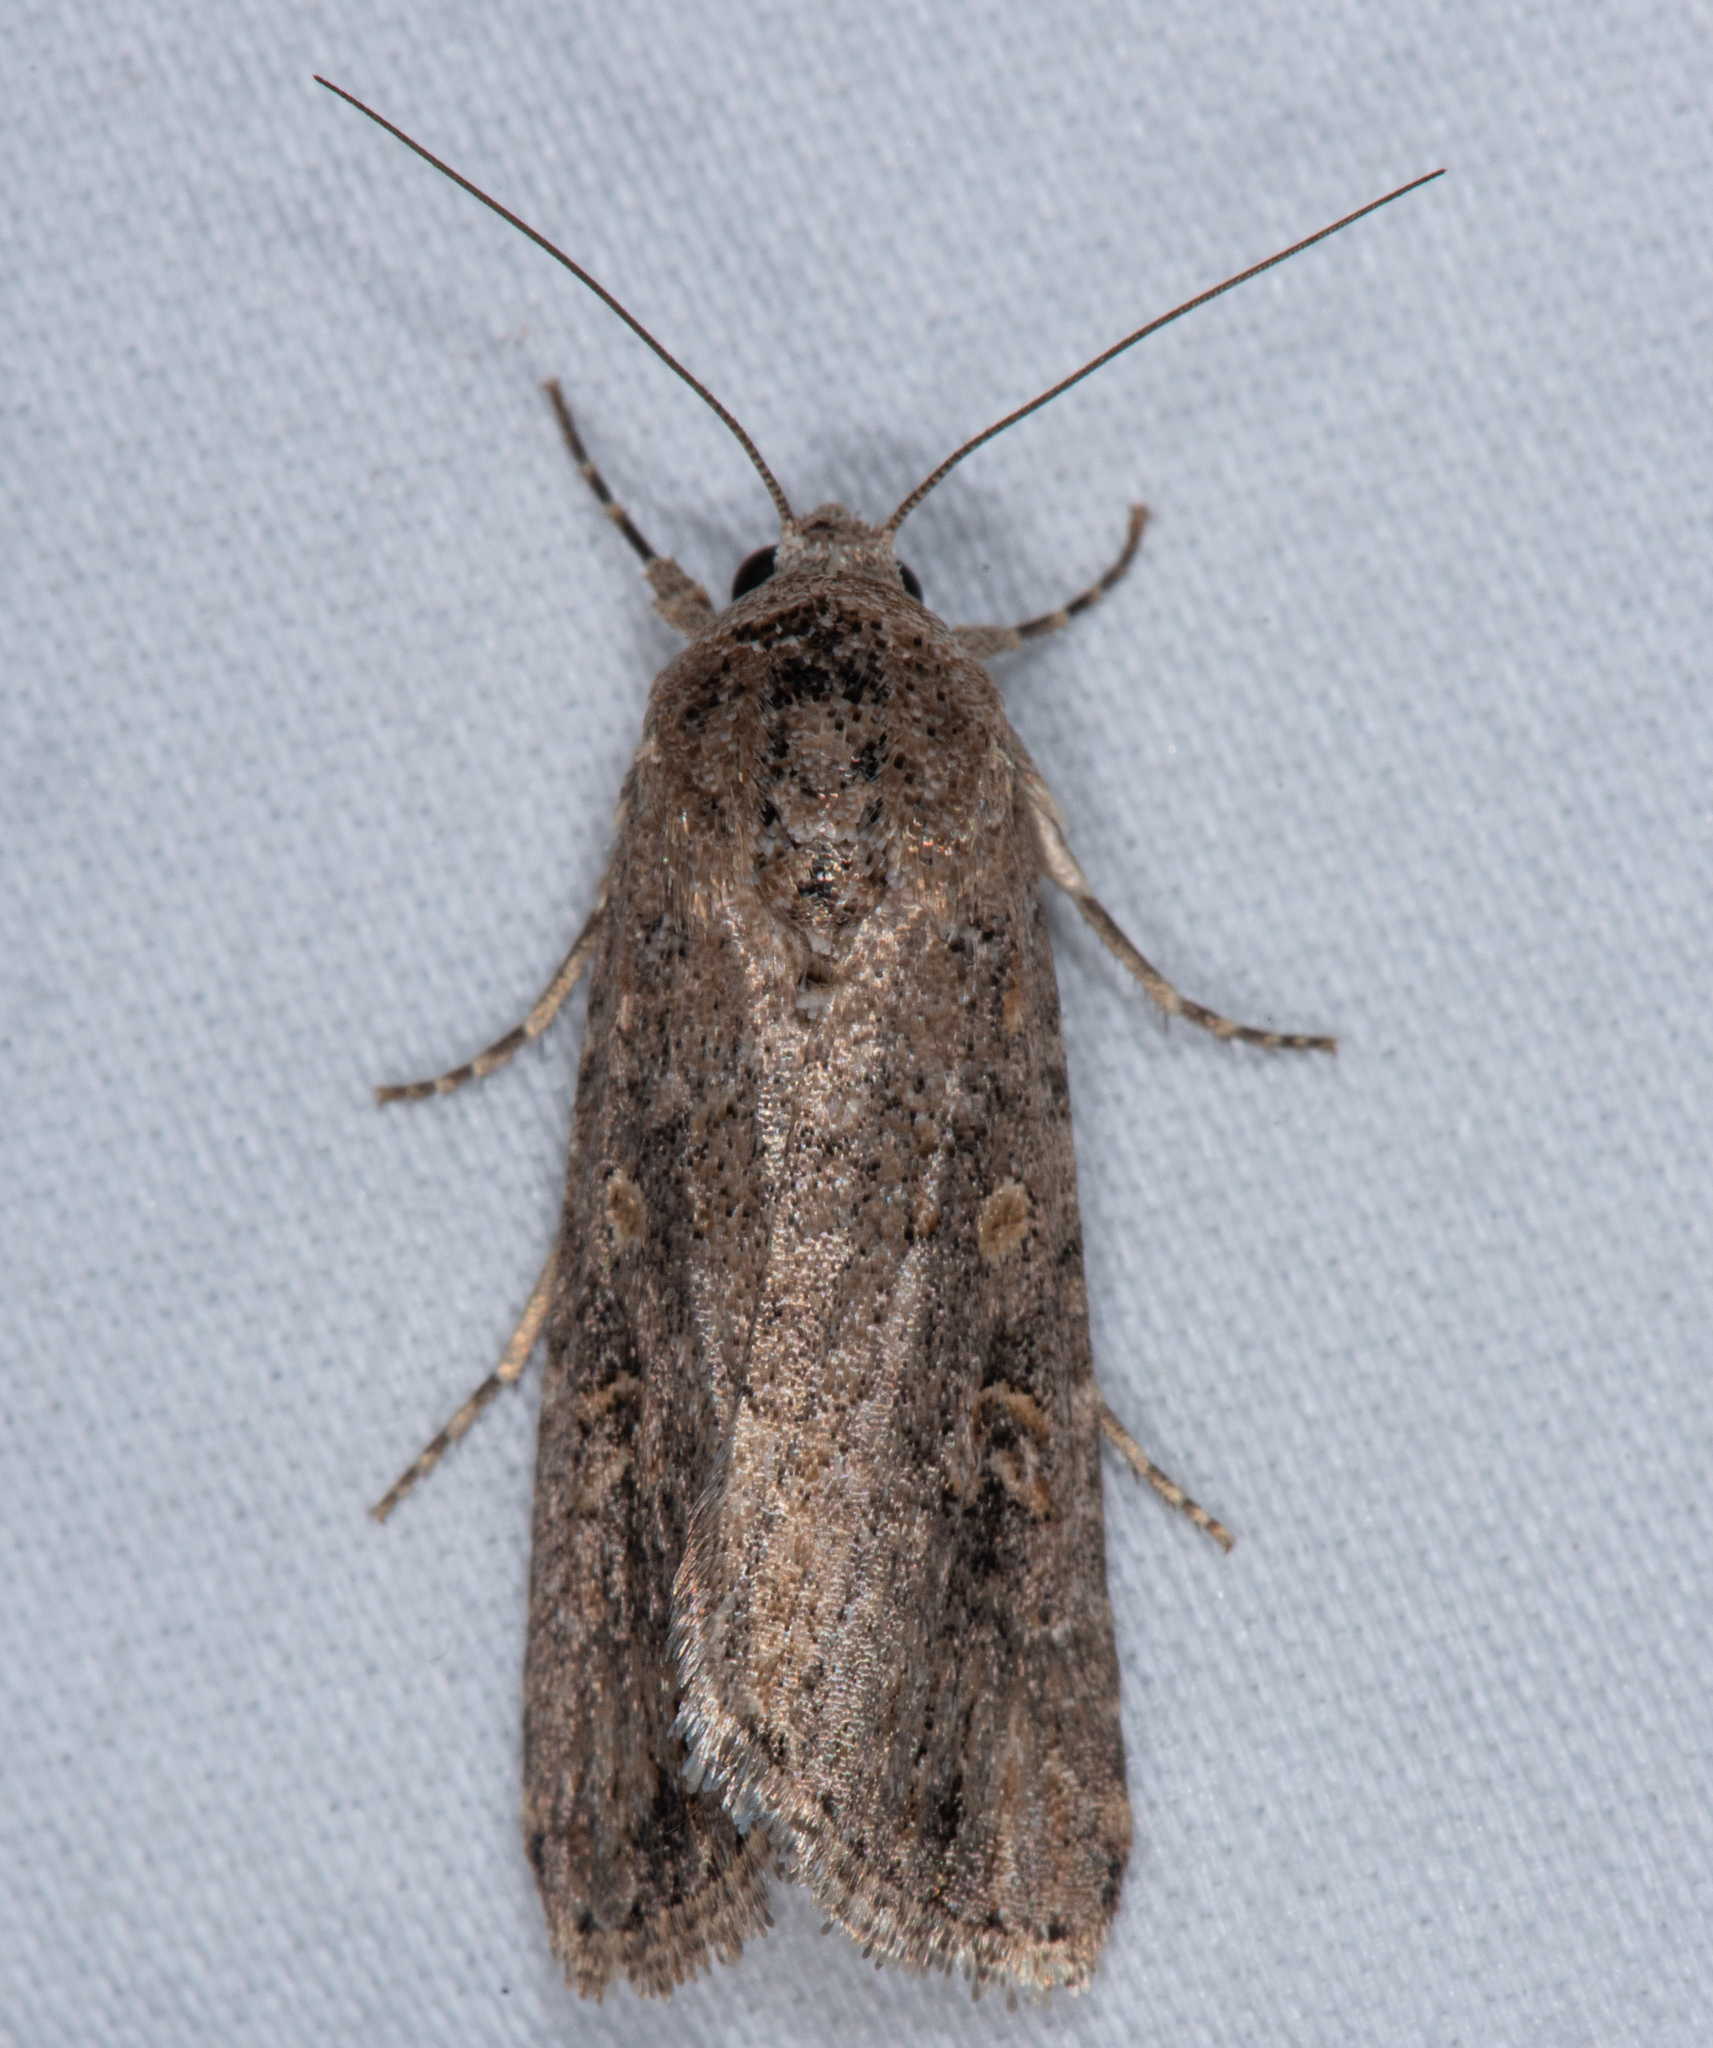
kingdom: Animalia
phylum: Arthropoda
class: Insecta
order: Lepidoptera
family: Noctuidae
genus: Spodoptera
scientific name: Spodoptera exigua
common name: Beet armyworm
